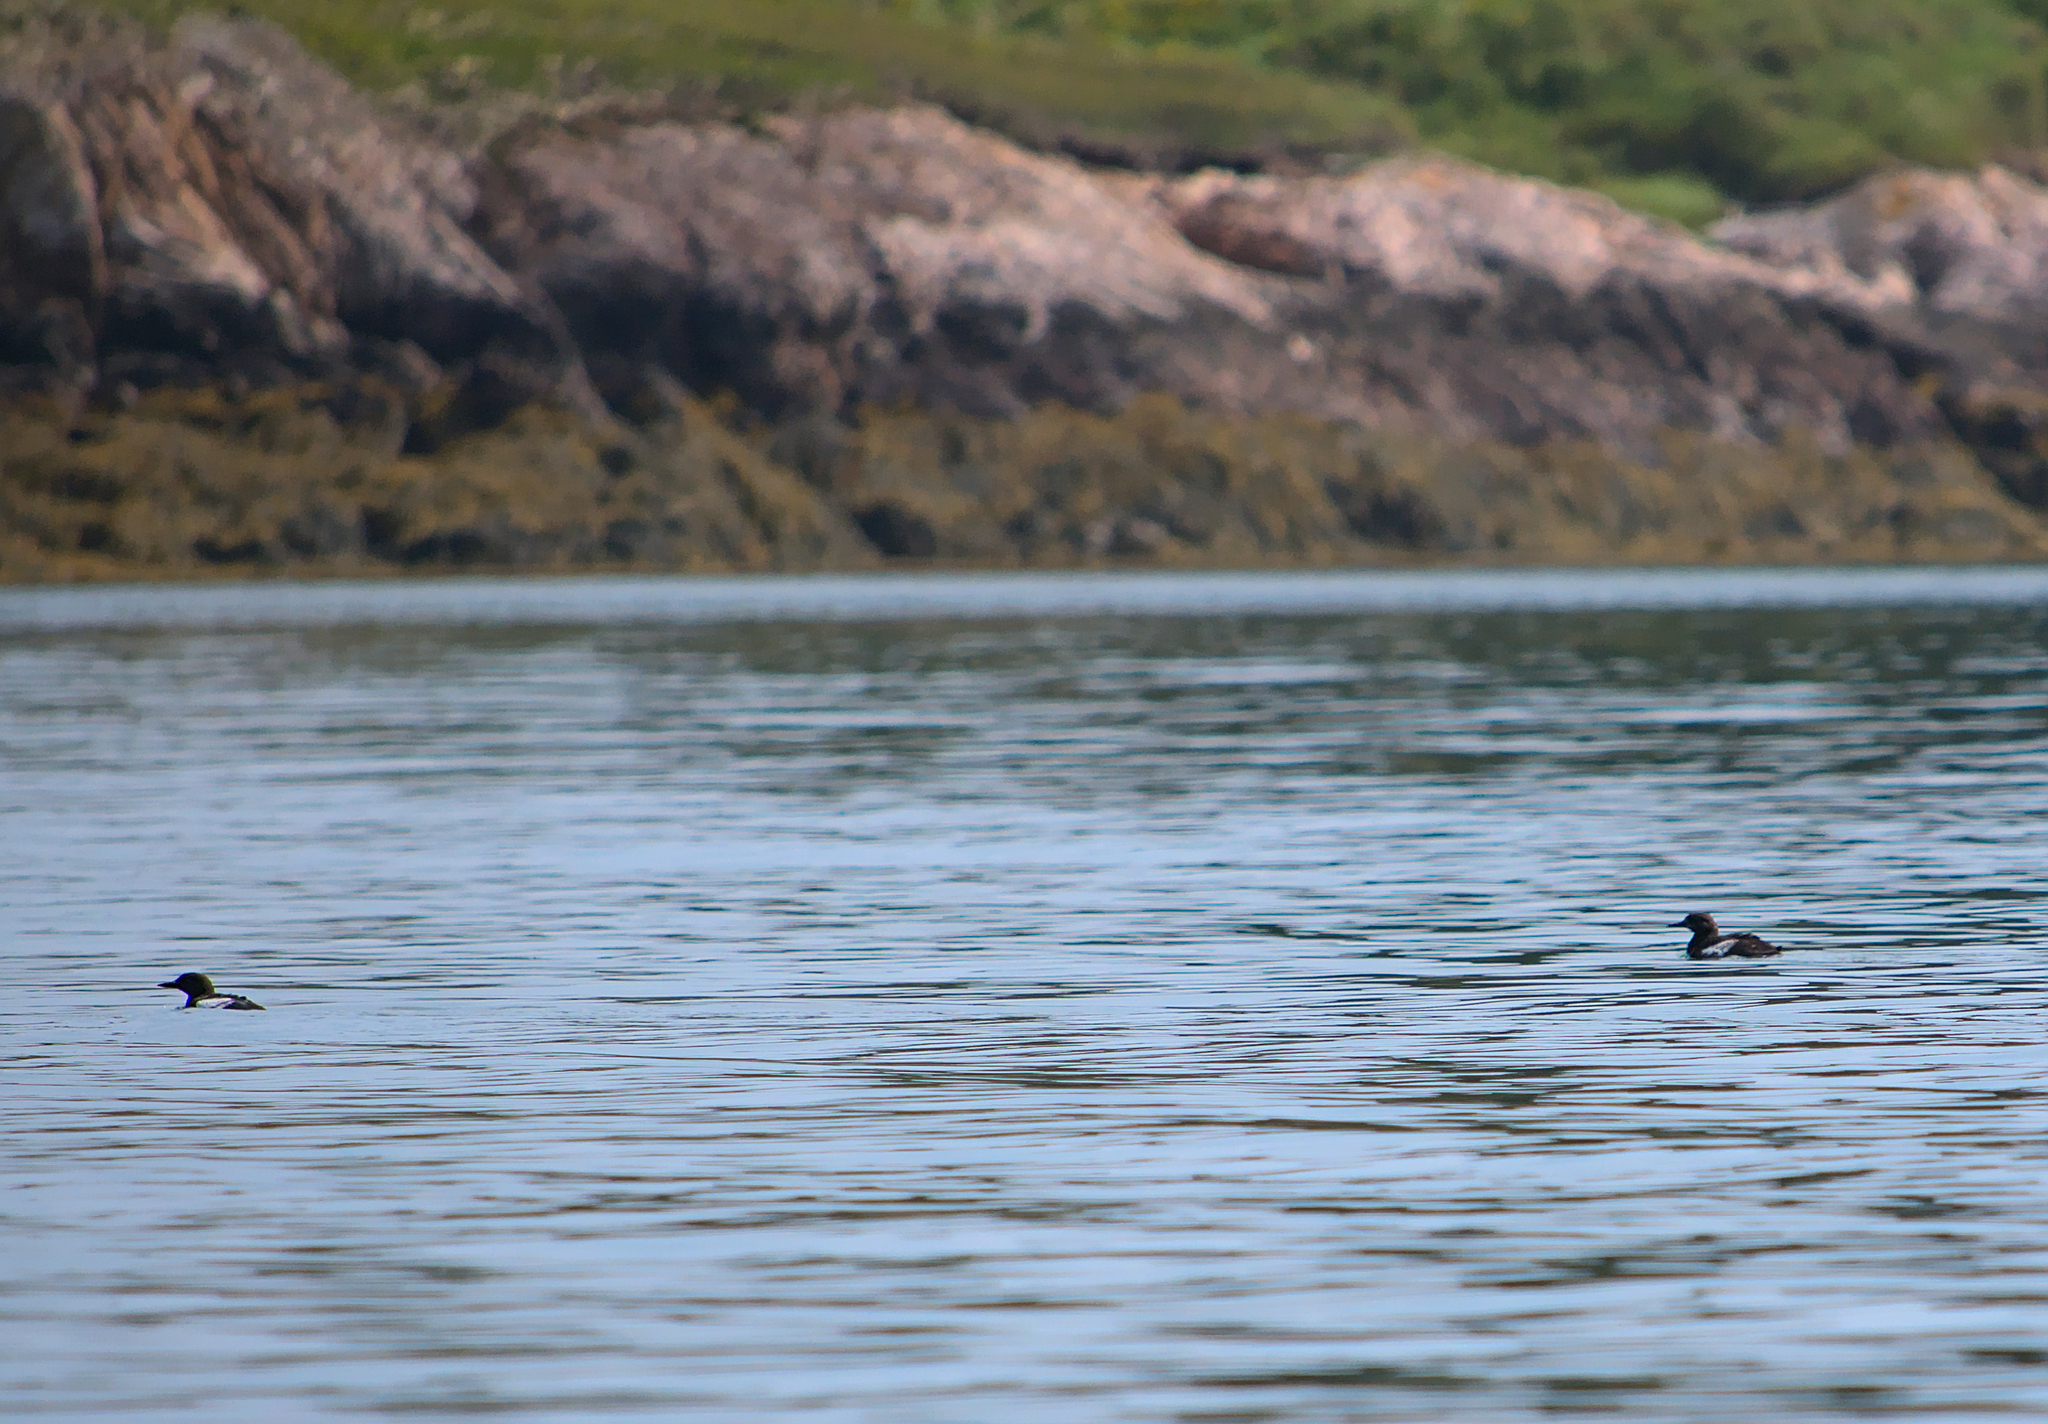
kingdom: Animalia
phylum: Chordata
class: Aves
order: Charadriiformes
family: Alcidae
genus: Cepphus
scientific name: Cepphus grylle
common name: Black guillemot
